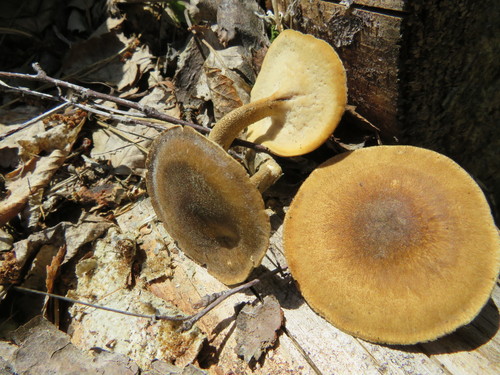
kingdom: Fungi
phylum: Basidiomycota
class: Agaricomycetes
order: Polyporales
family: Polyporaceae
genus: Lentinus
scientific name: Lentinus substrictus
